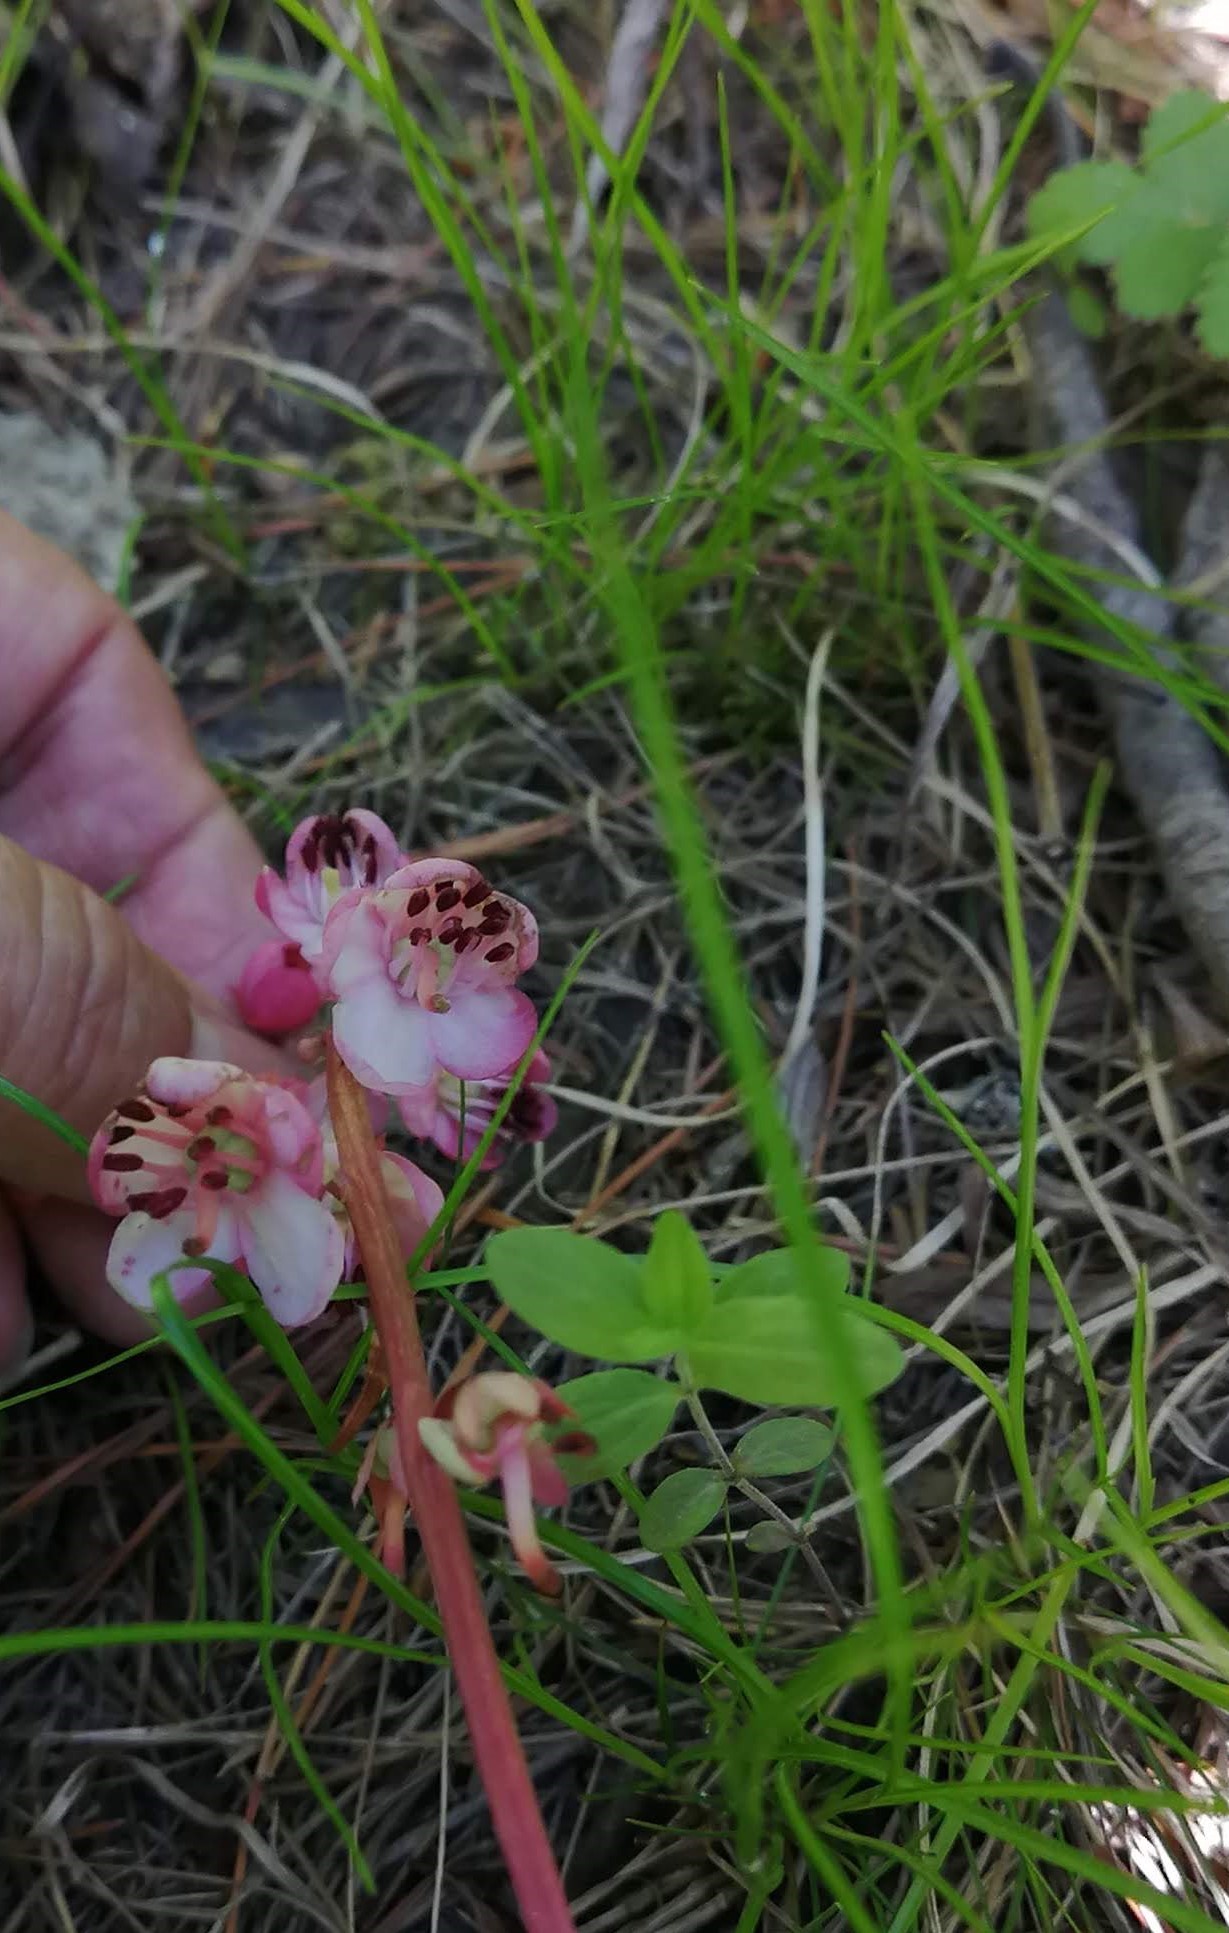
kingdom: Plantae
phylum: Tracheophyta
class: Magnoliopsida
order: Ericales
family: Ericaceae
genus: Pyrola
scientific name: Pyrola asarifolia
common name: Bog wintergreen
